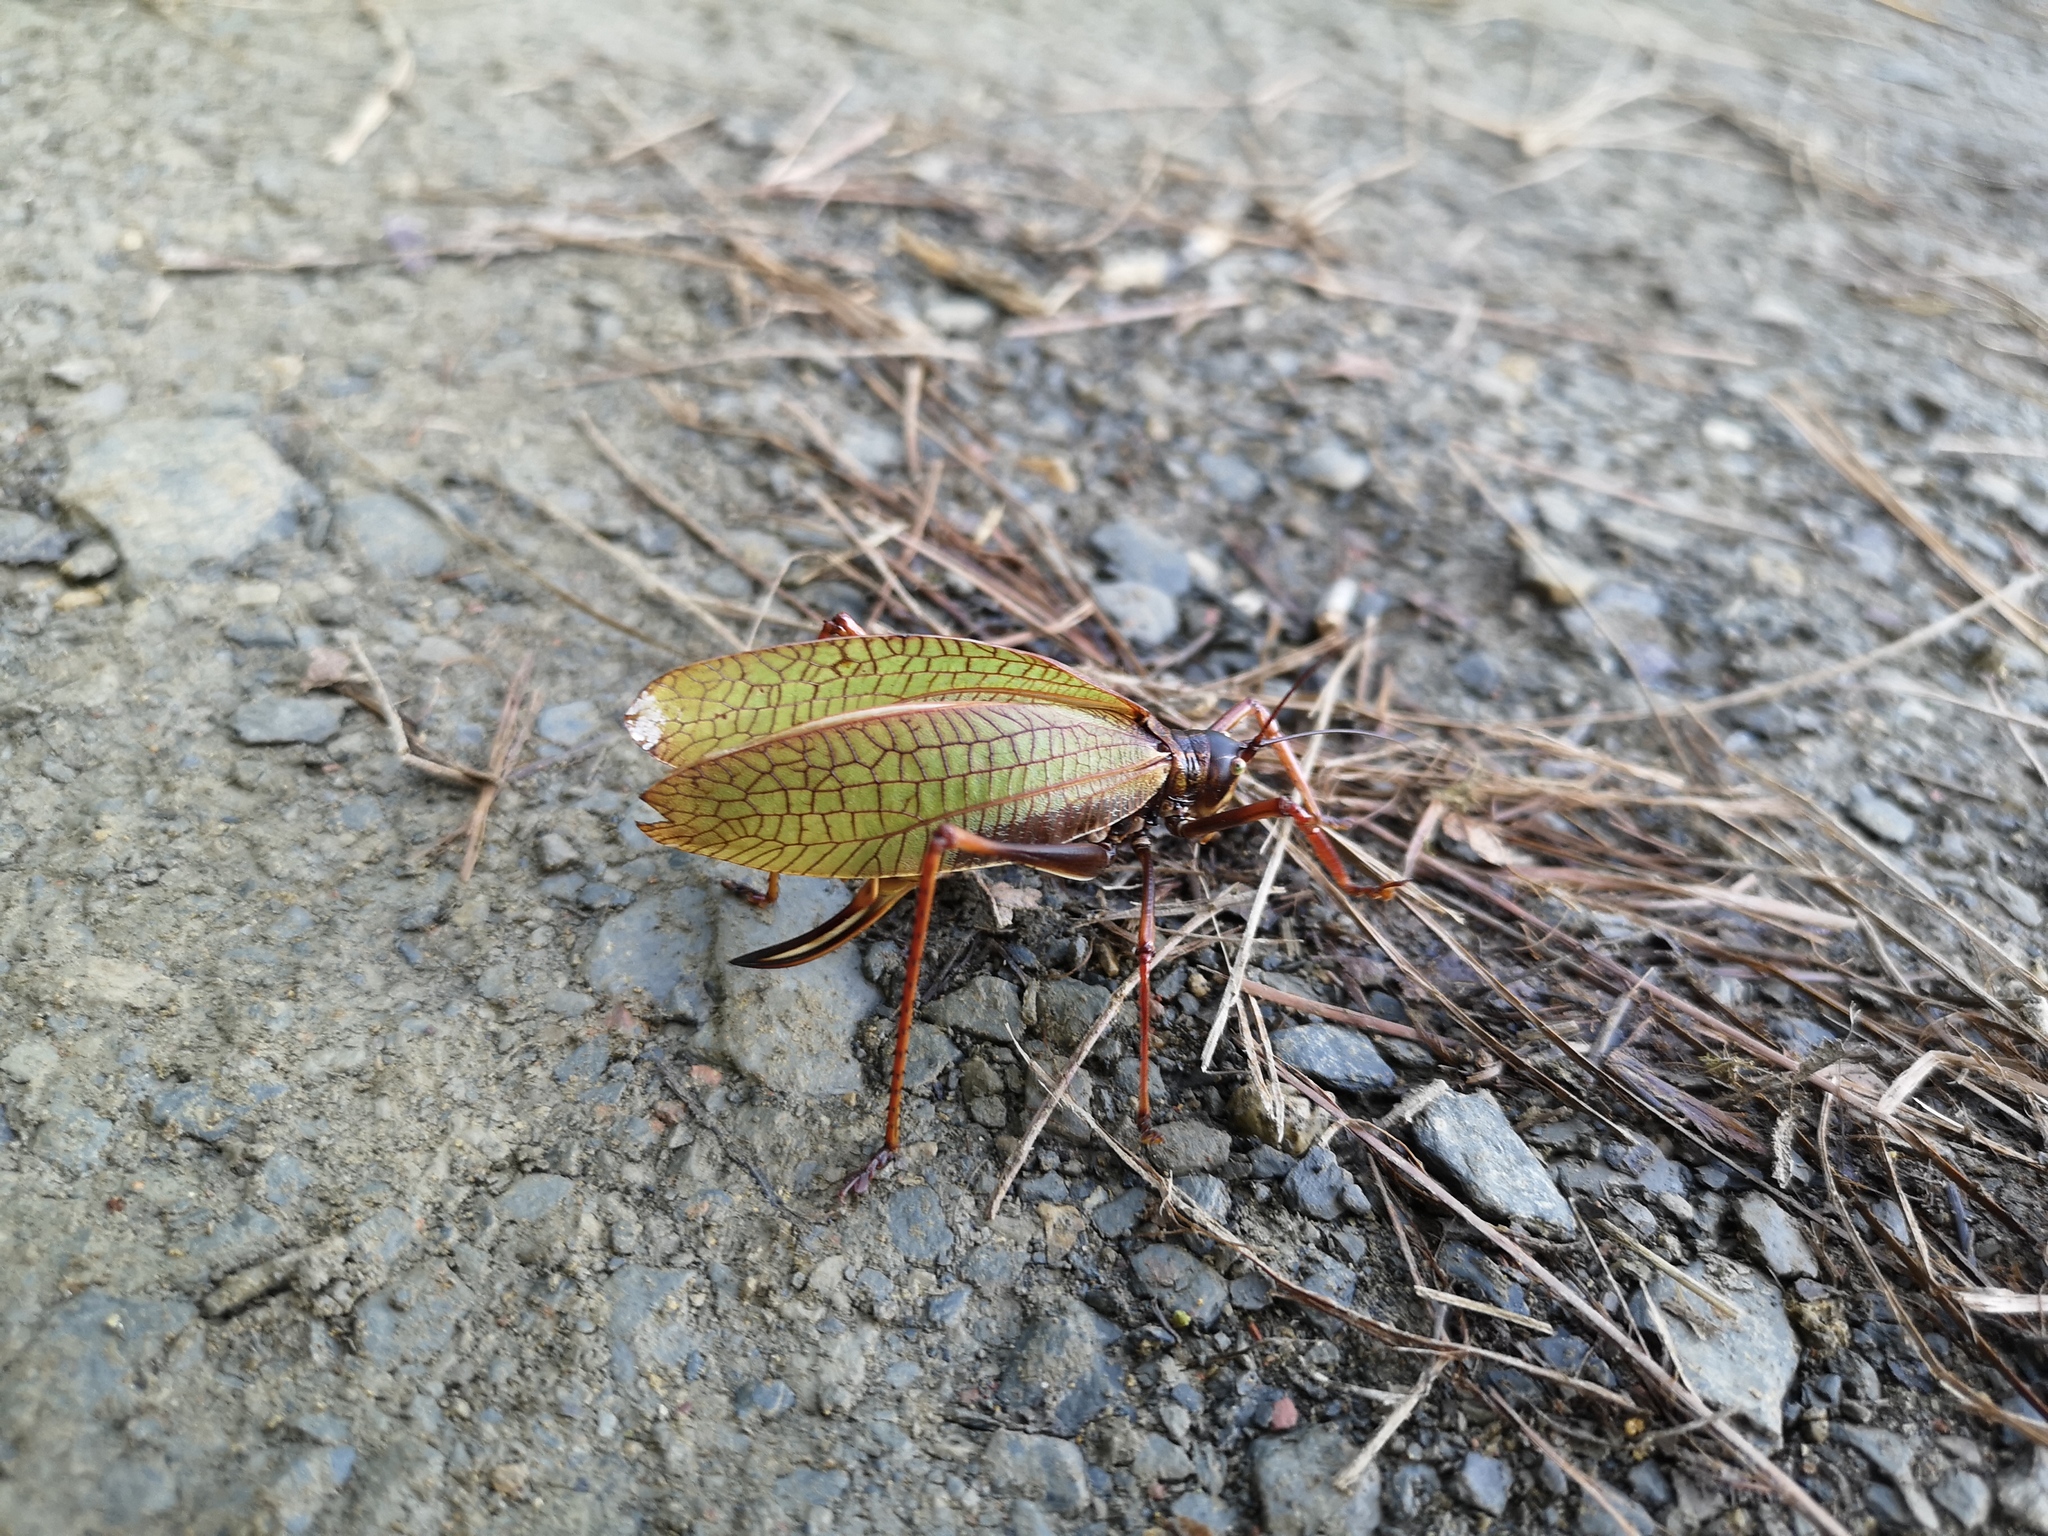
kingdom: Animalia
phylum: Arthropoda
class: Insecta
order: Orthoptera
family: Tettigoniidae
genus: Pterophylla
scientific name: Pterophylla beltrani
